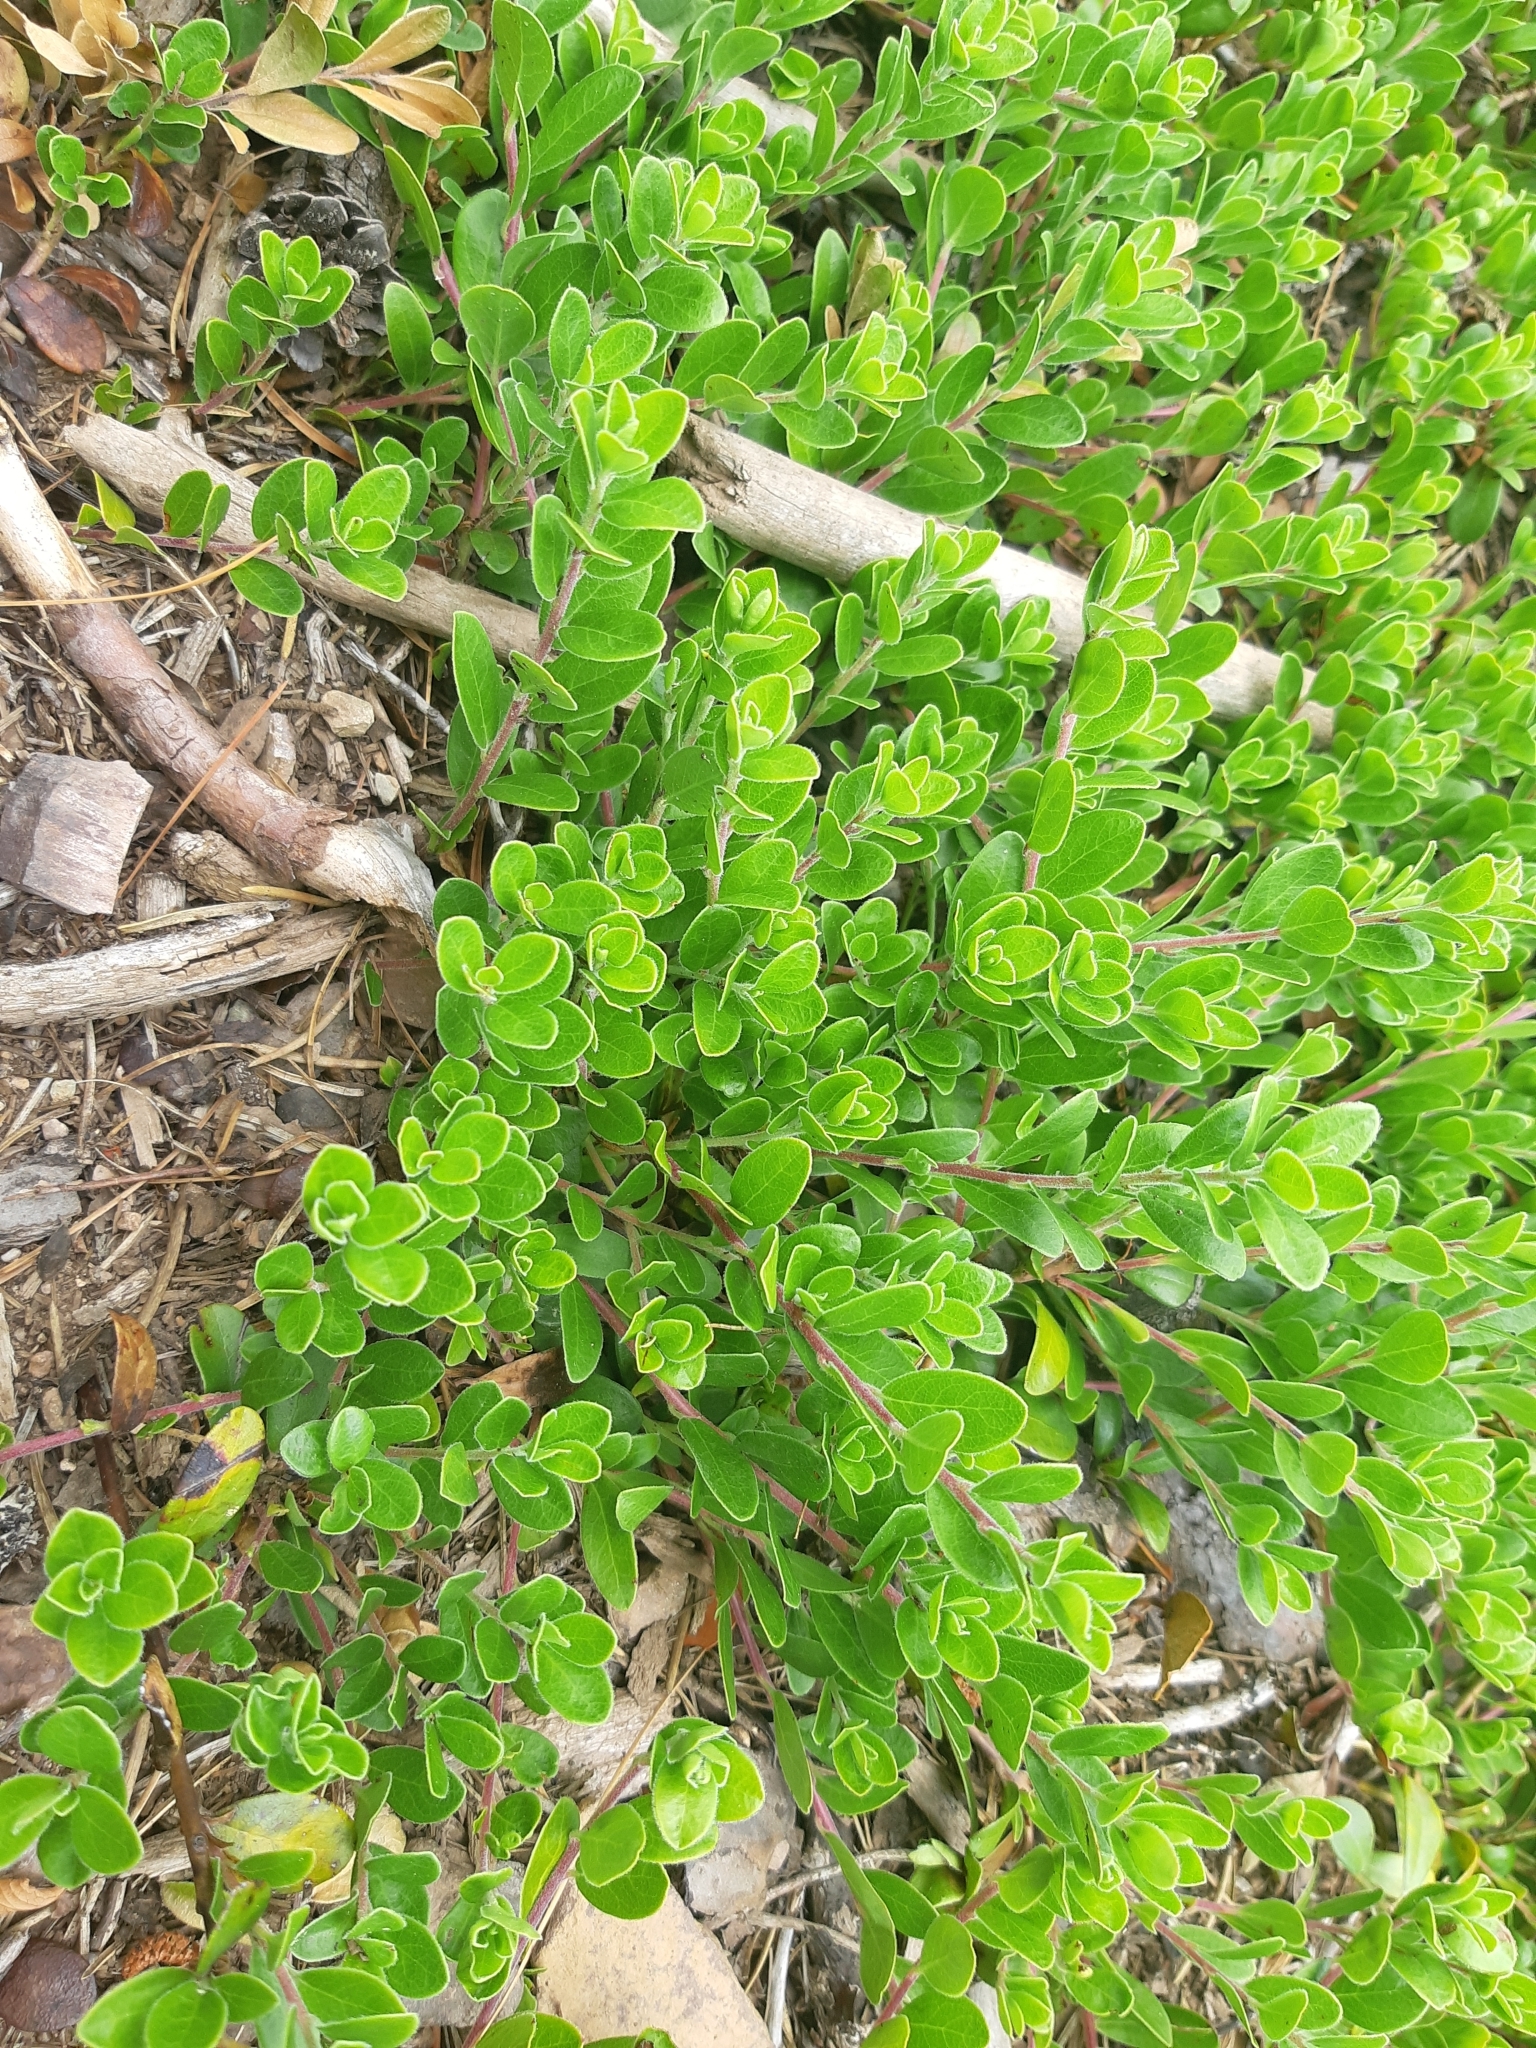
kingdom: Plantae
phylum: Tracheophyta
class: Magnoliopsida
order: Ericales
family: Ericaceae
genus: Arctostaphylos
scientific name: Arctostaphylos uva-ursi
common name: Bearberry
